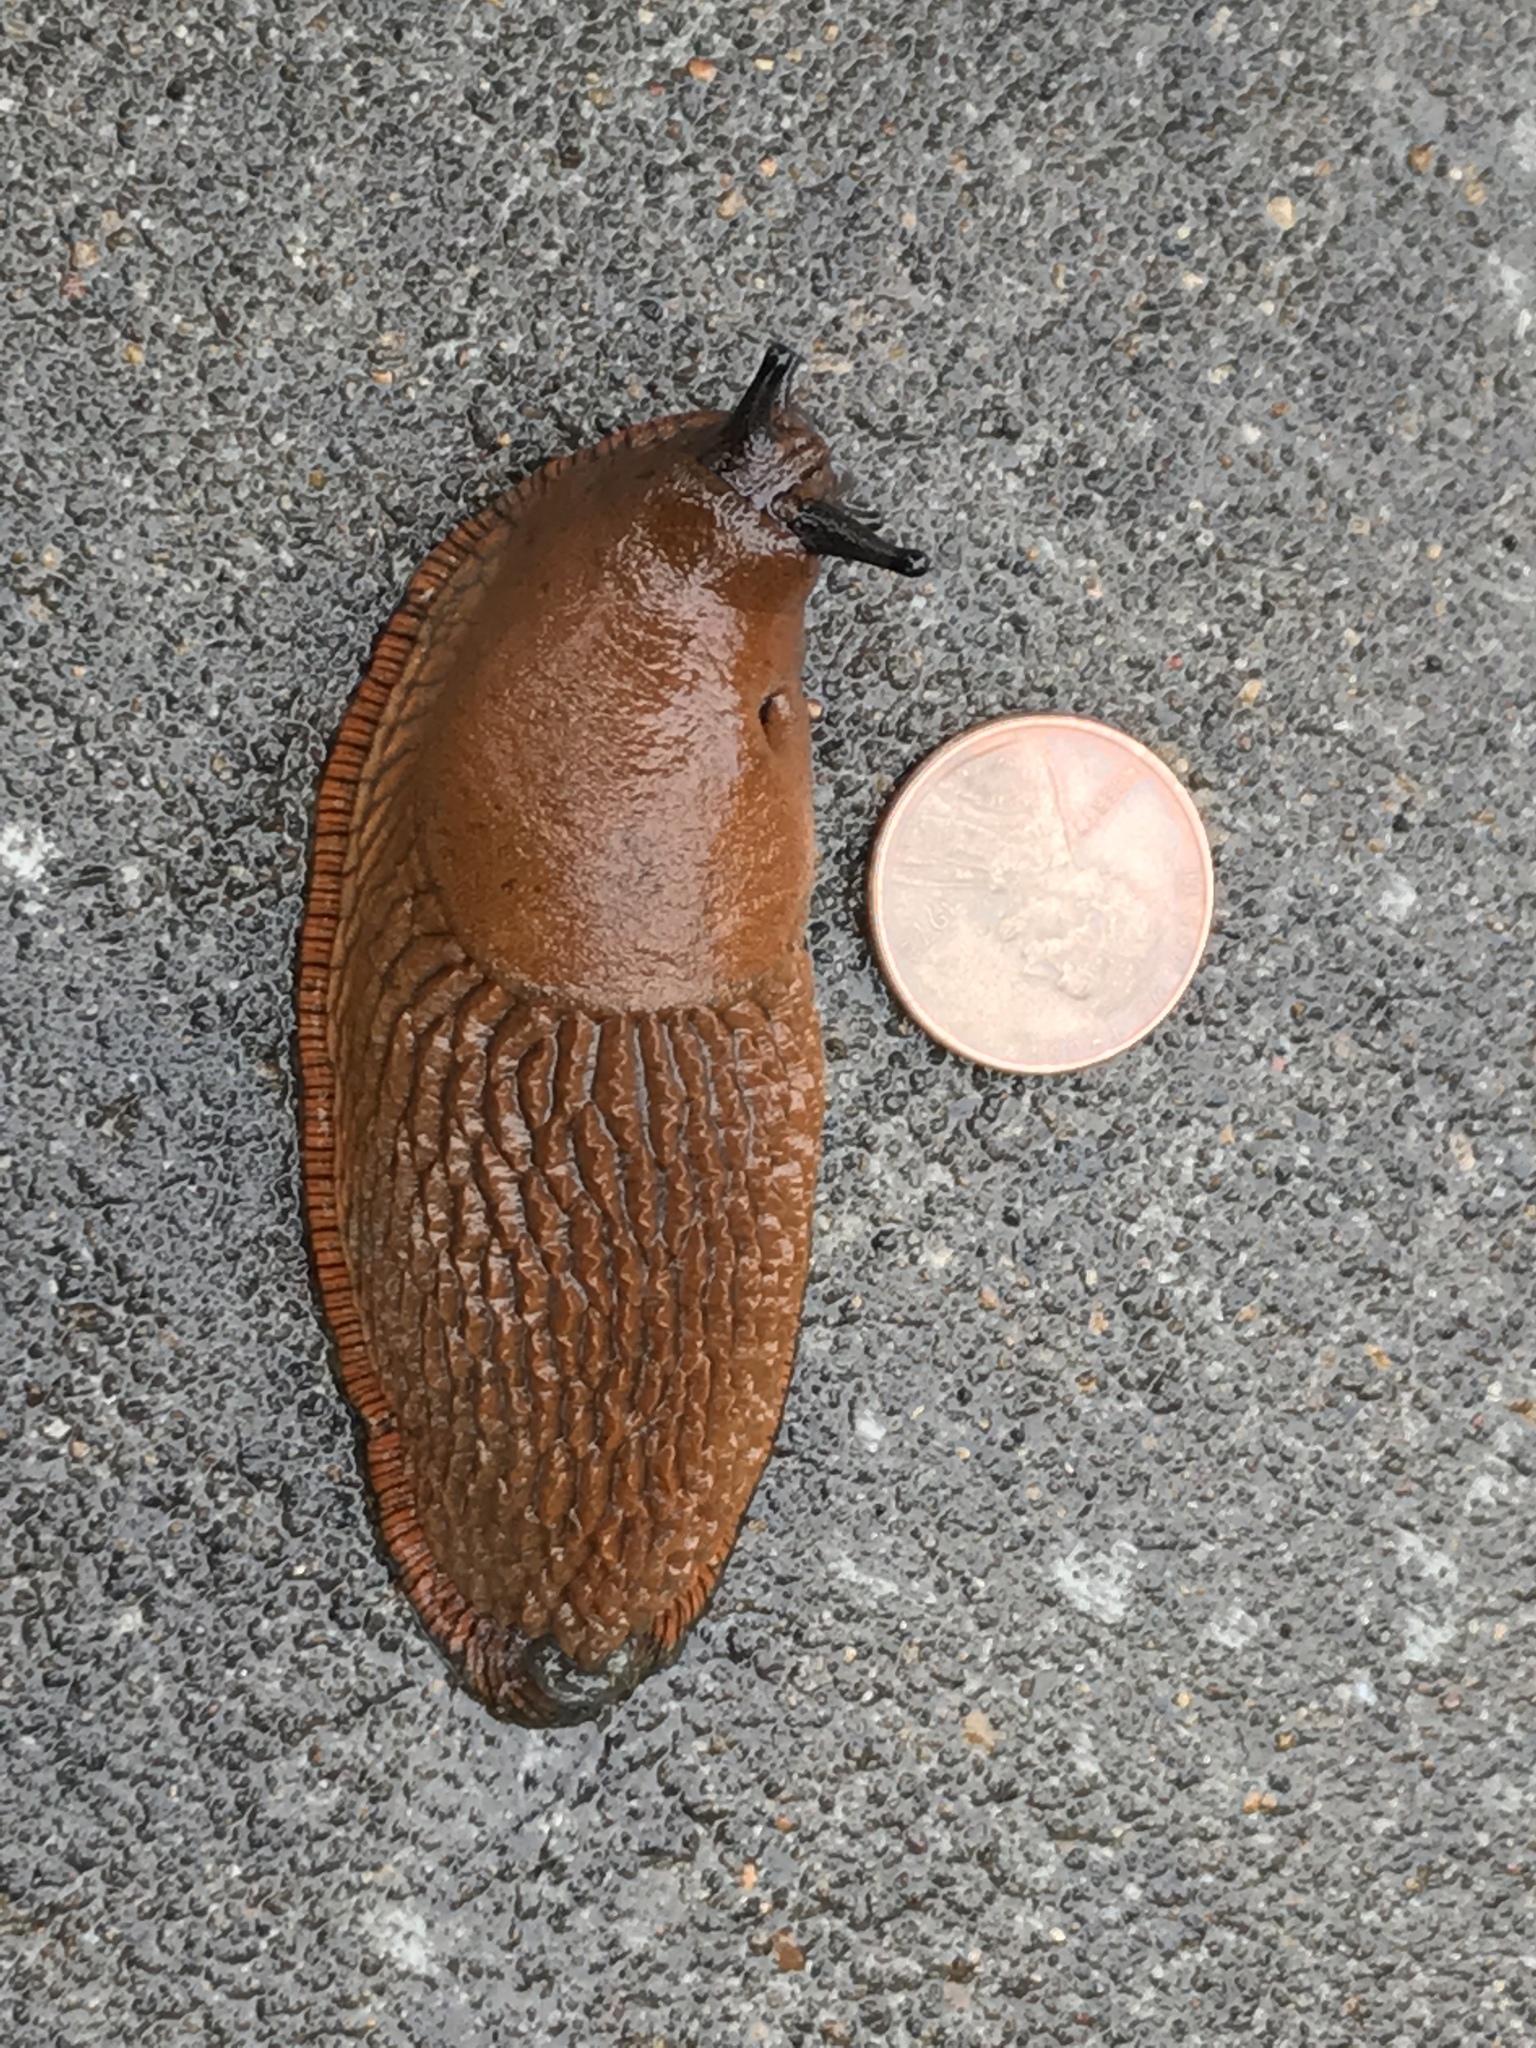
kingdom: Animalia
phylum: Mollusca
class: Gastropoda
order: Stylommatophora
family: Arionidae
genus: Arion
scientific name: Arion rufus
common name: Chocolate arion
